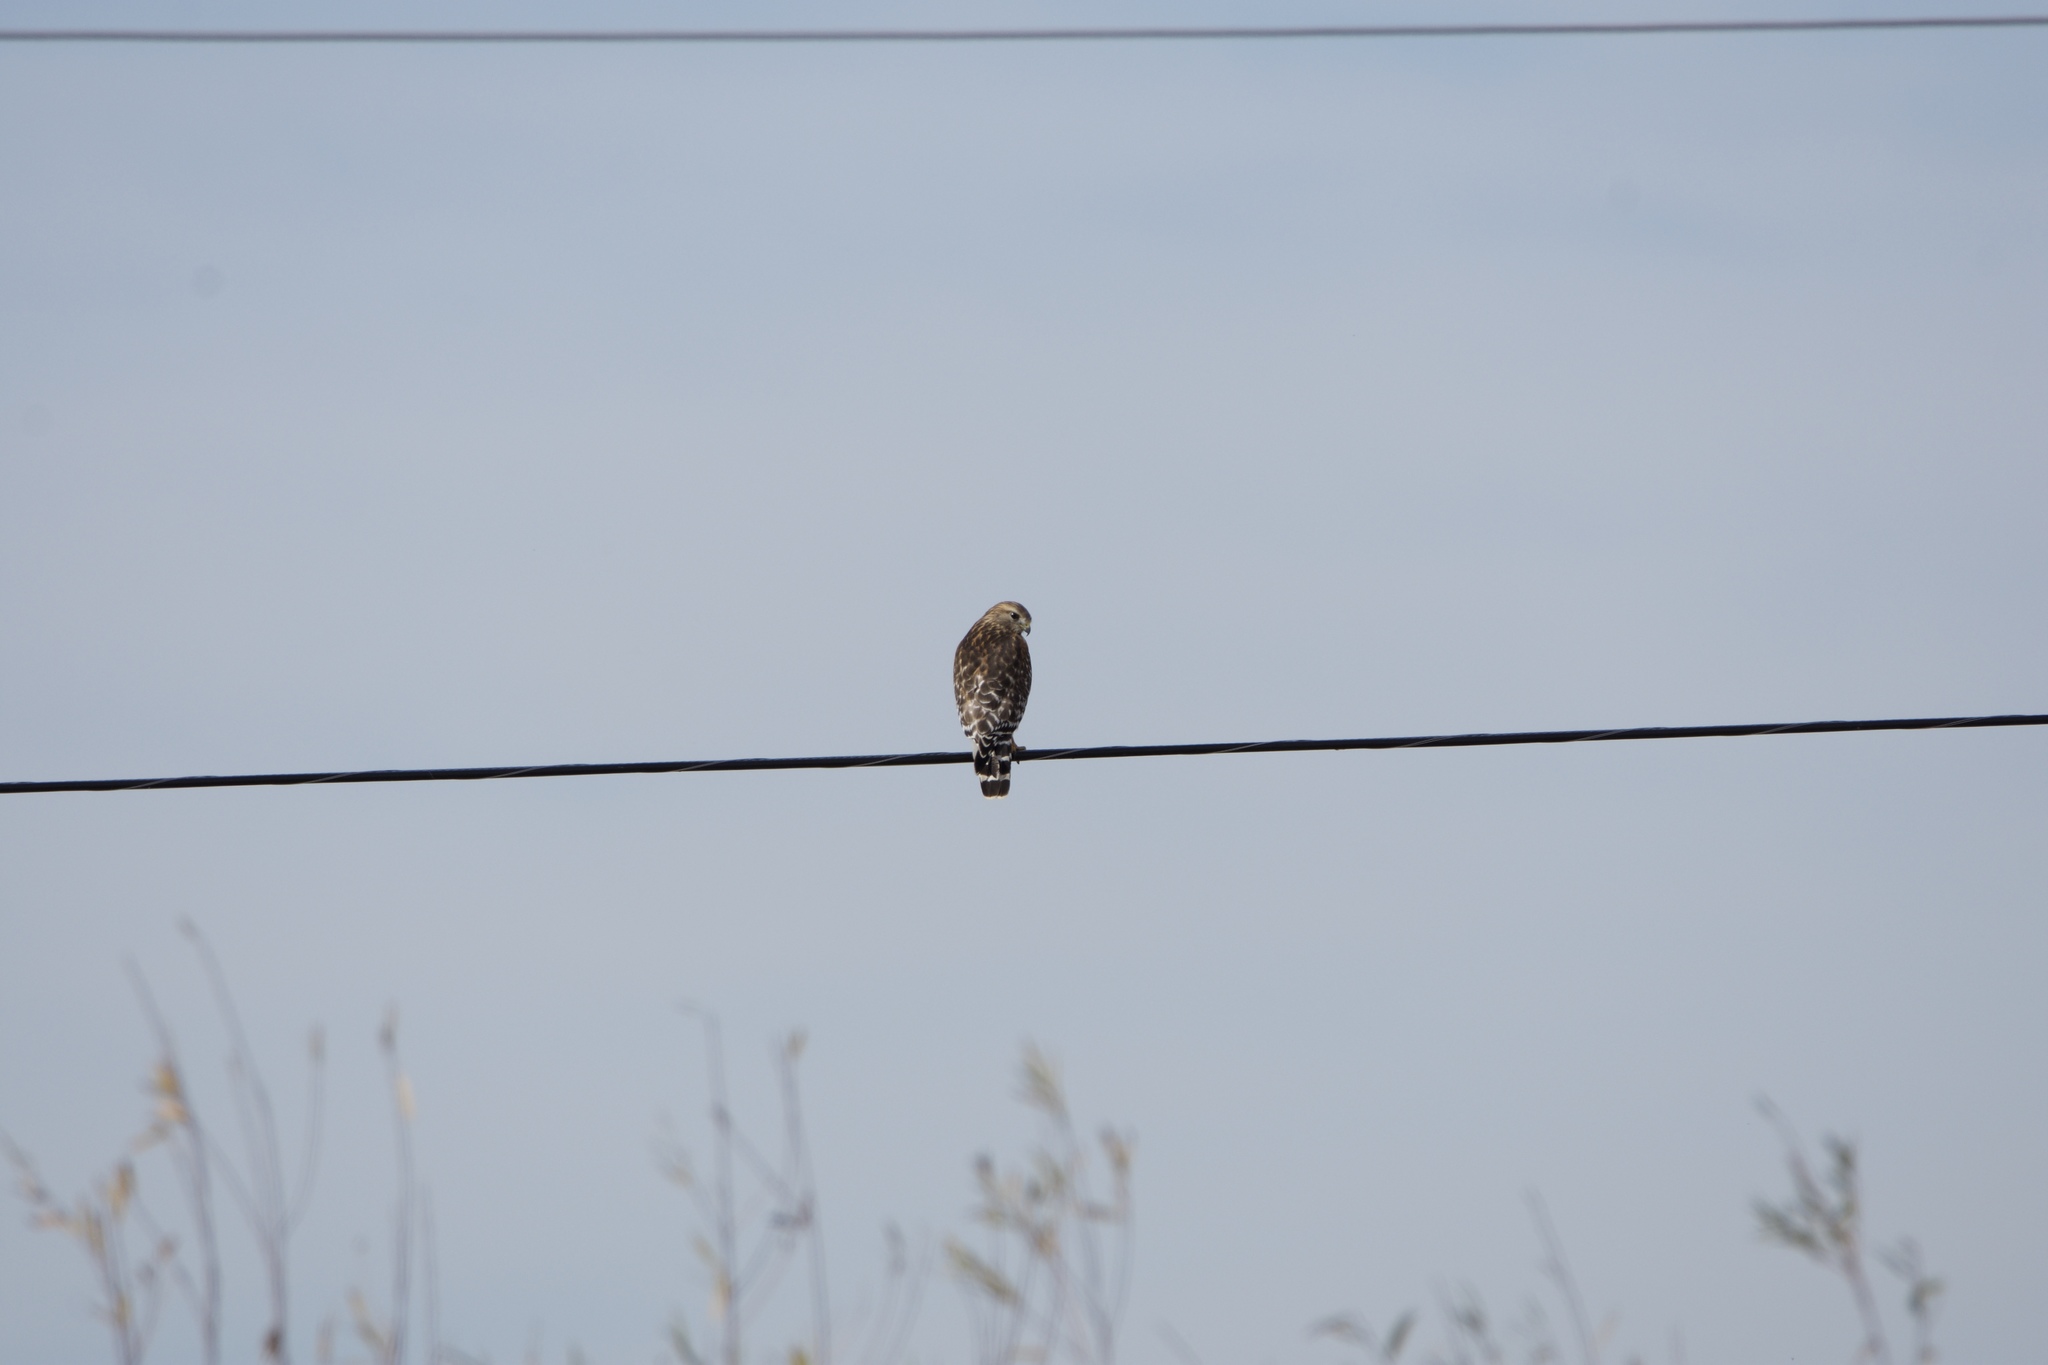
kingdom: Animalia
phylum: Chordata
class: Aves
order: Accipitriformes
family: Accipitridae
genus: Buteo
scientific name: Buteo lineatus
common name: Red-shouldered hawk
